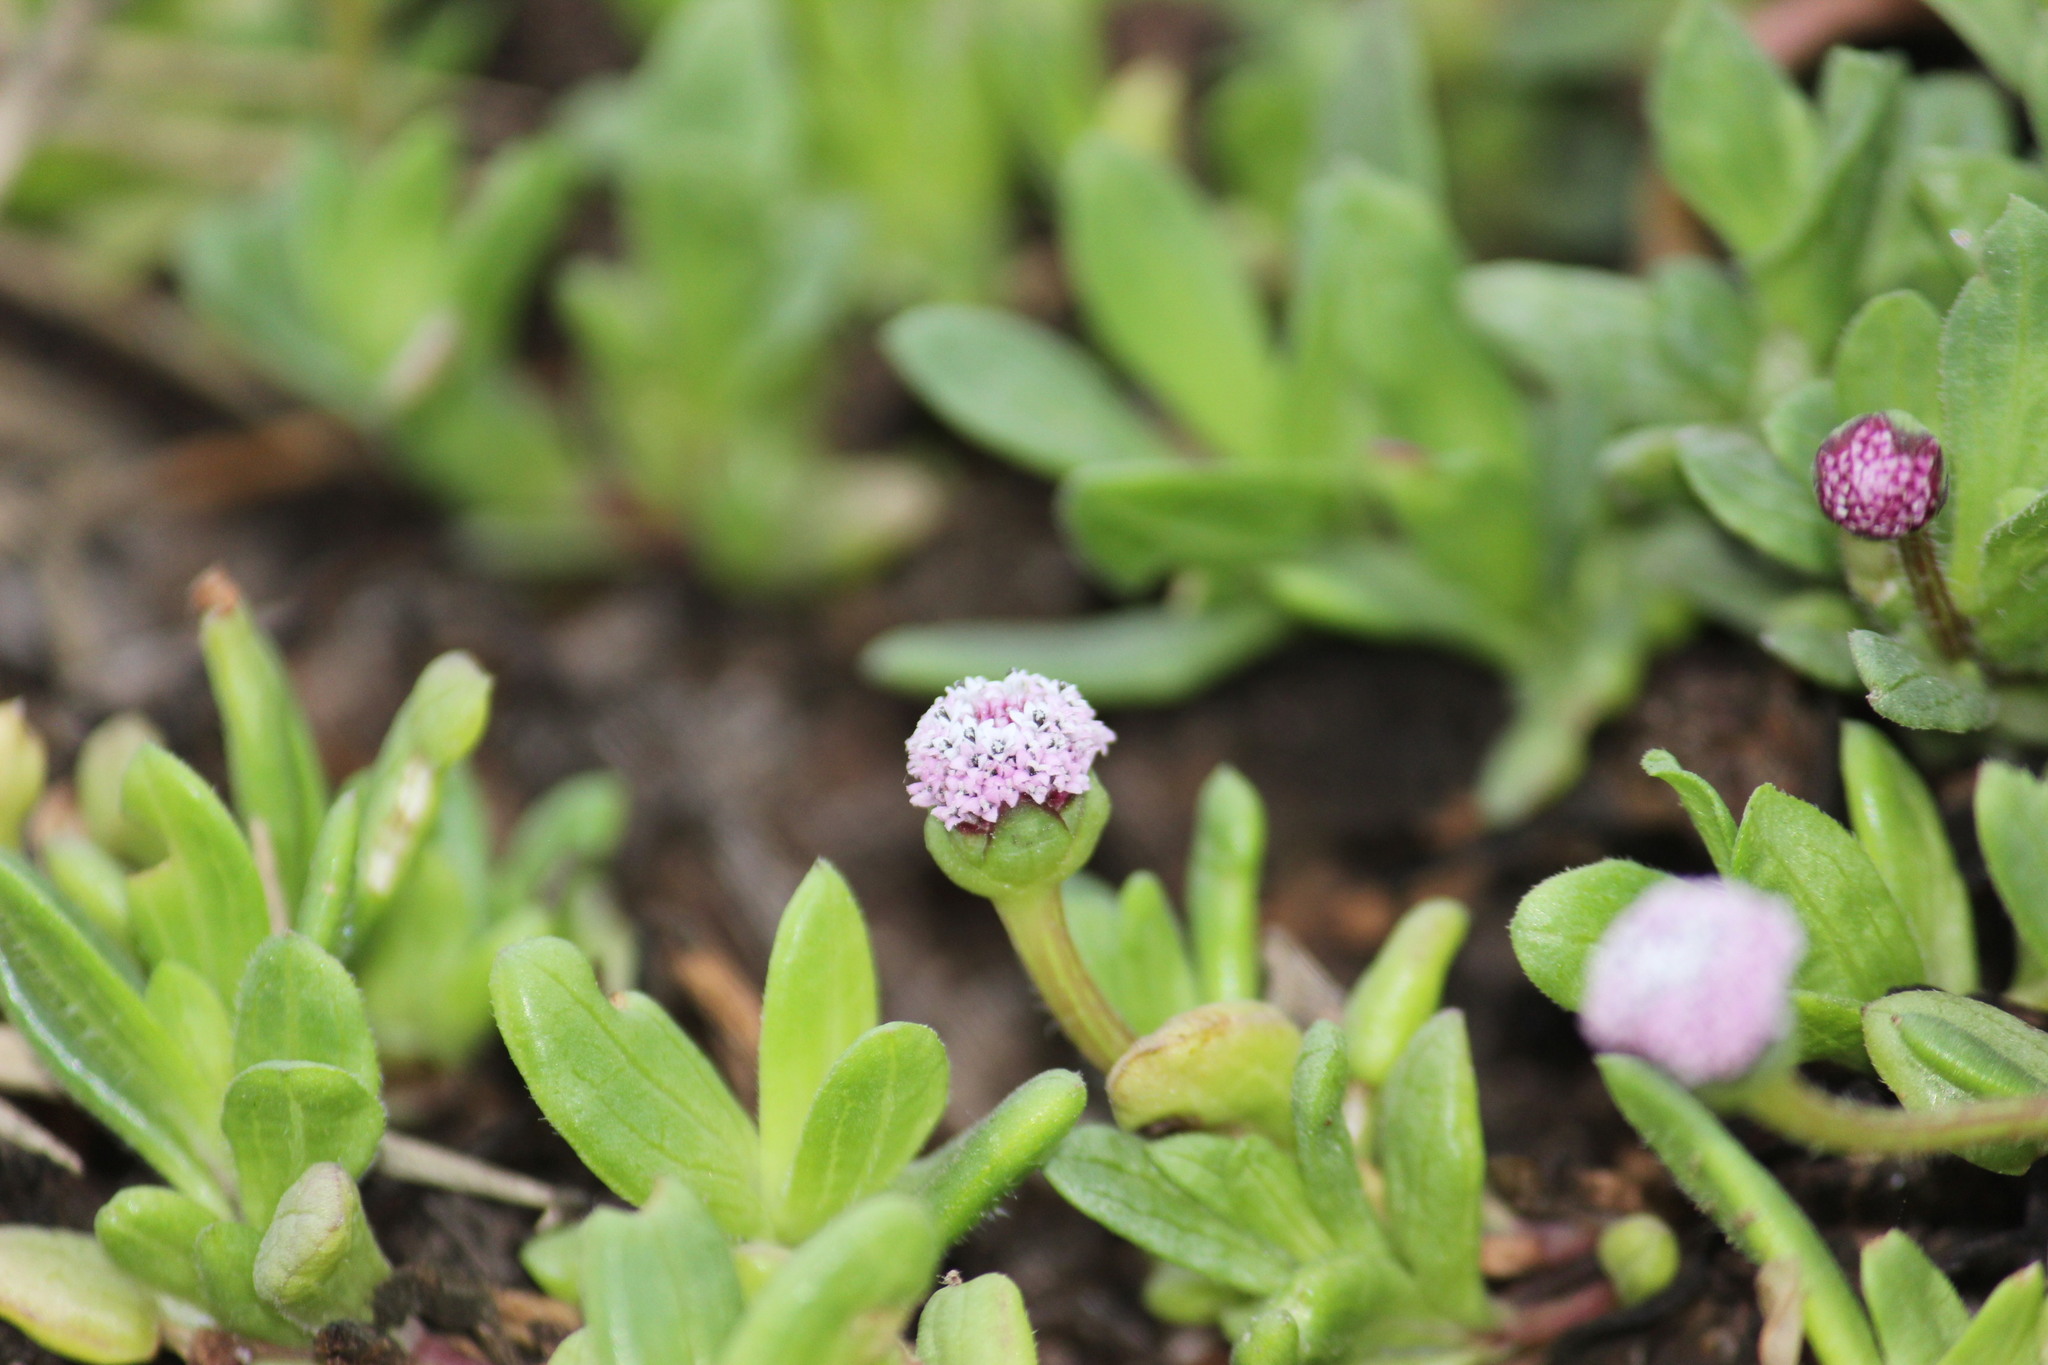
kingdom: Plantae
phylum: Tracheophyta
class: Magnoliopsida
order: Asterales
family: Asteraceae
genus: Spilanthes
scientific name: Spilanthes leiocarpa
